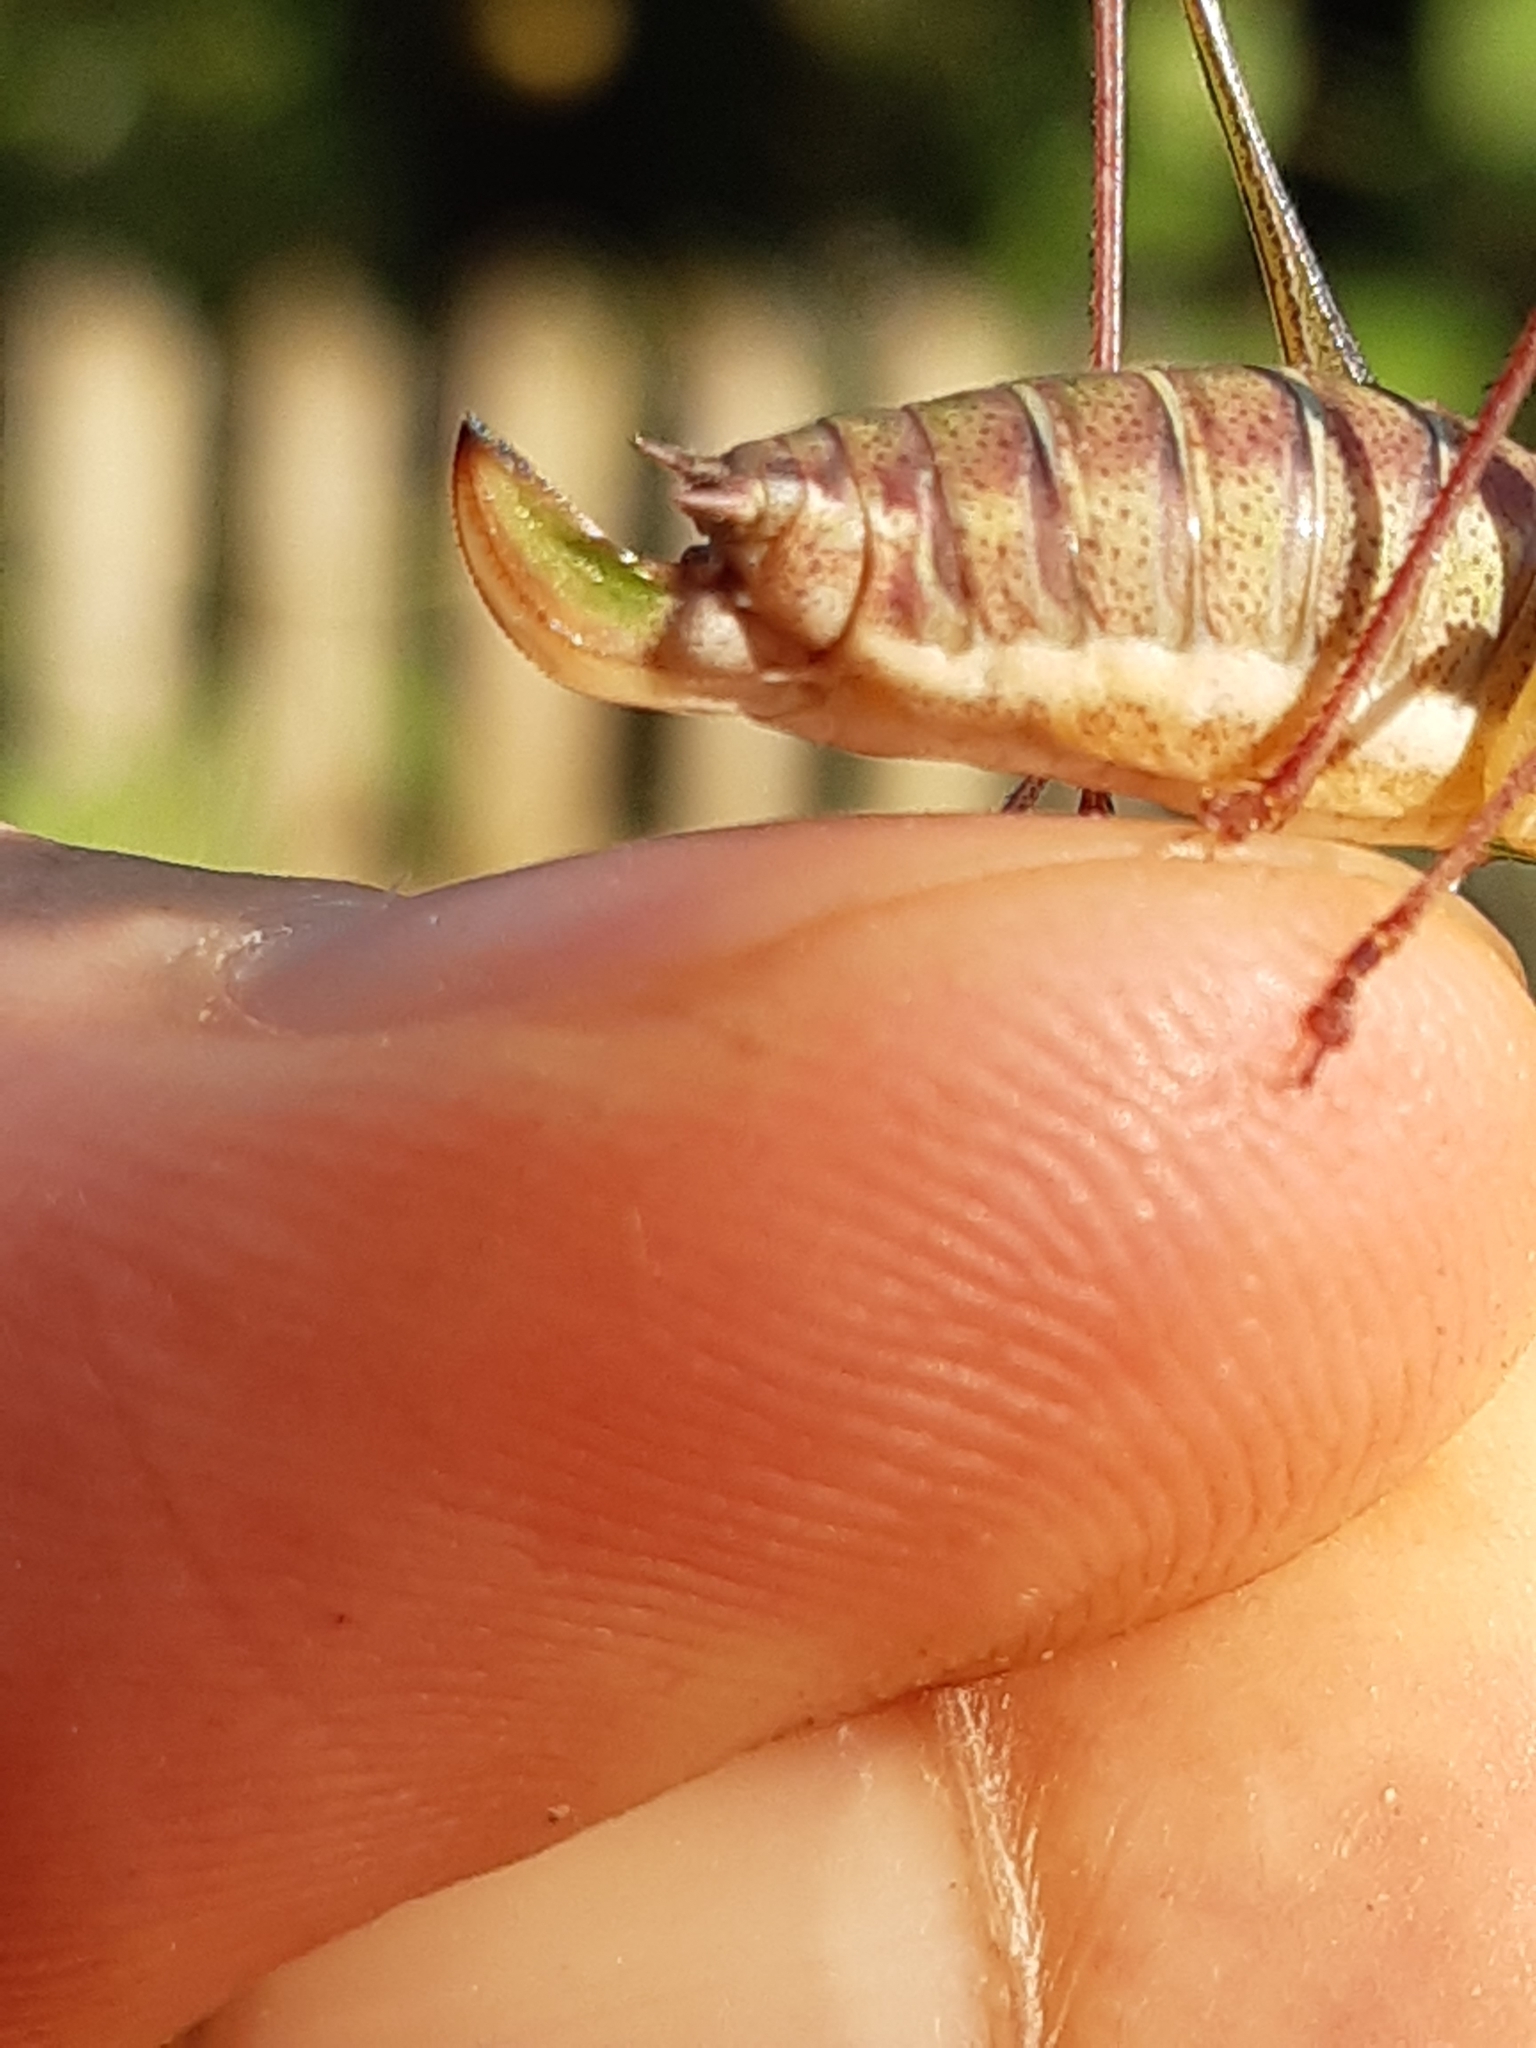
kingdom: Animalia
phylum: Arthropoda
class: Insecta
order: Orthoptera
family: Tettigoniidae
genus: Leptophyes
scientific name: Leptophyes albovittata
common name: Striped bush-cricket
